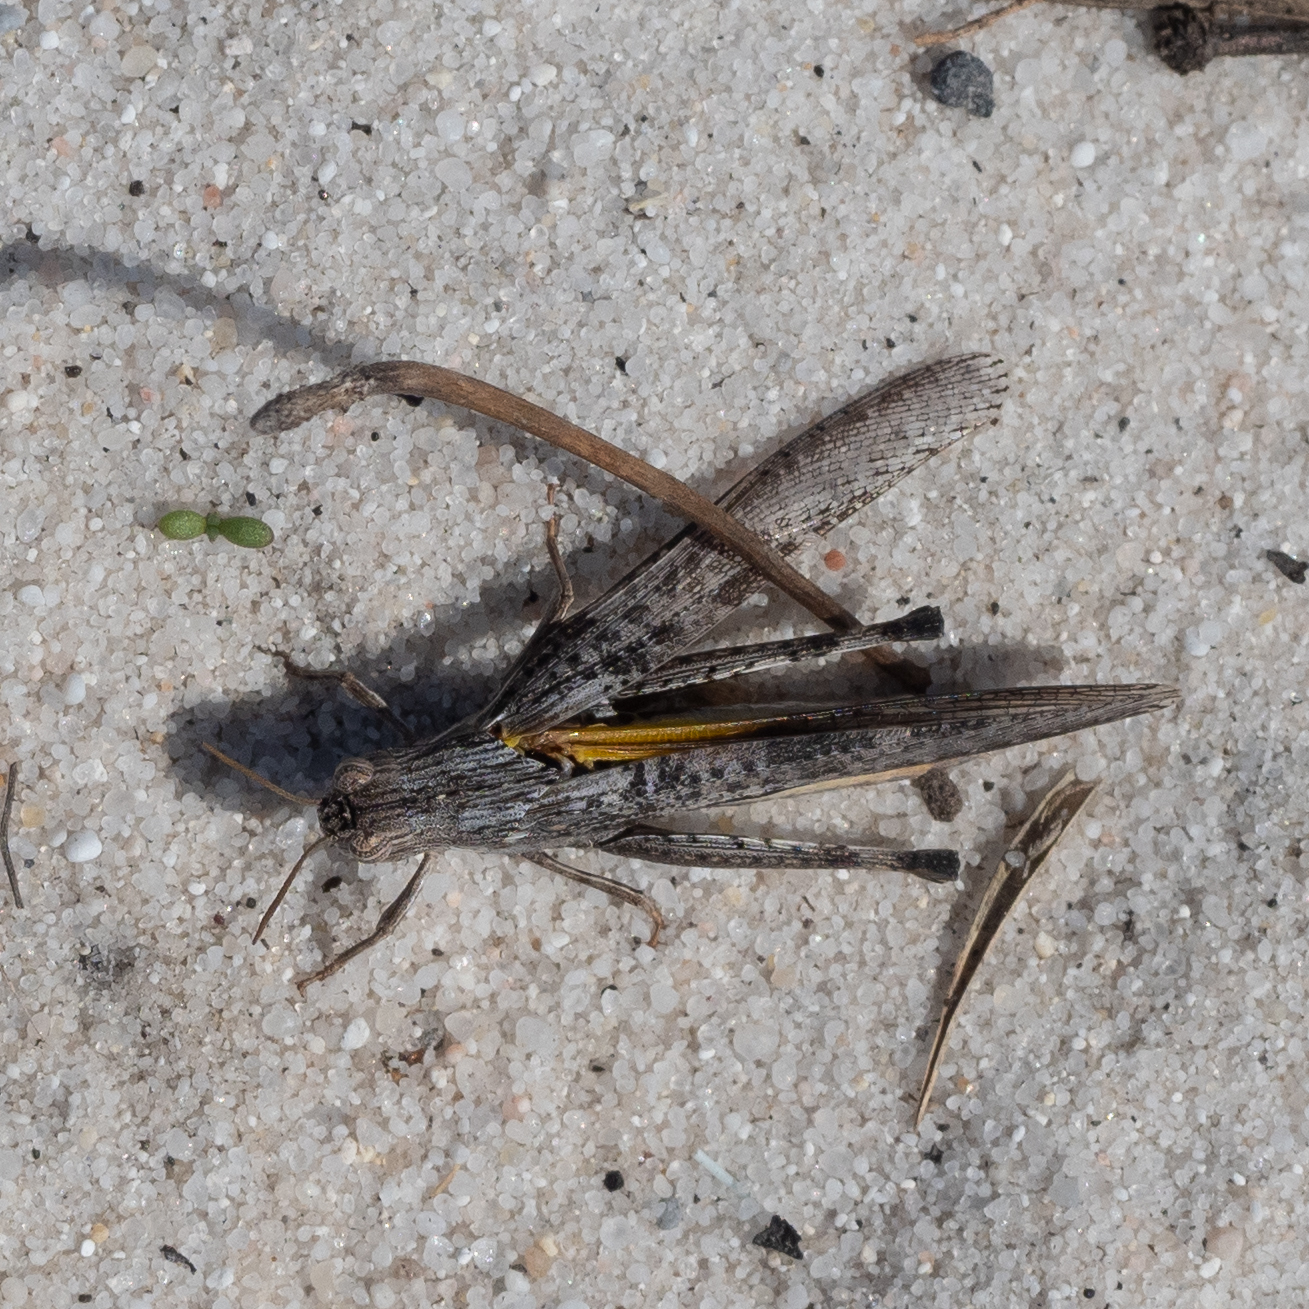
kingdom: Animalia
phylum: Arthropoda
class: Insecta
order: Orthoptera
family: Acrididae
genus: Morphacris
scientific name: Morphacris fasciata
